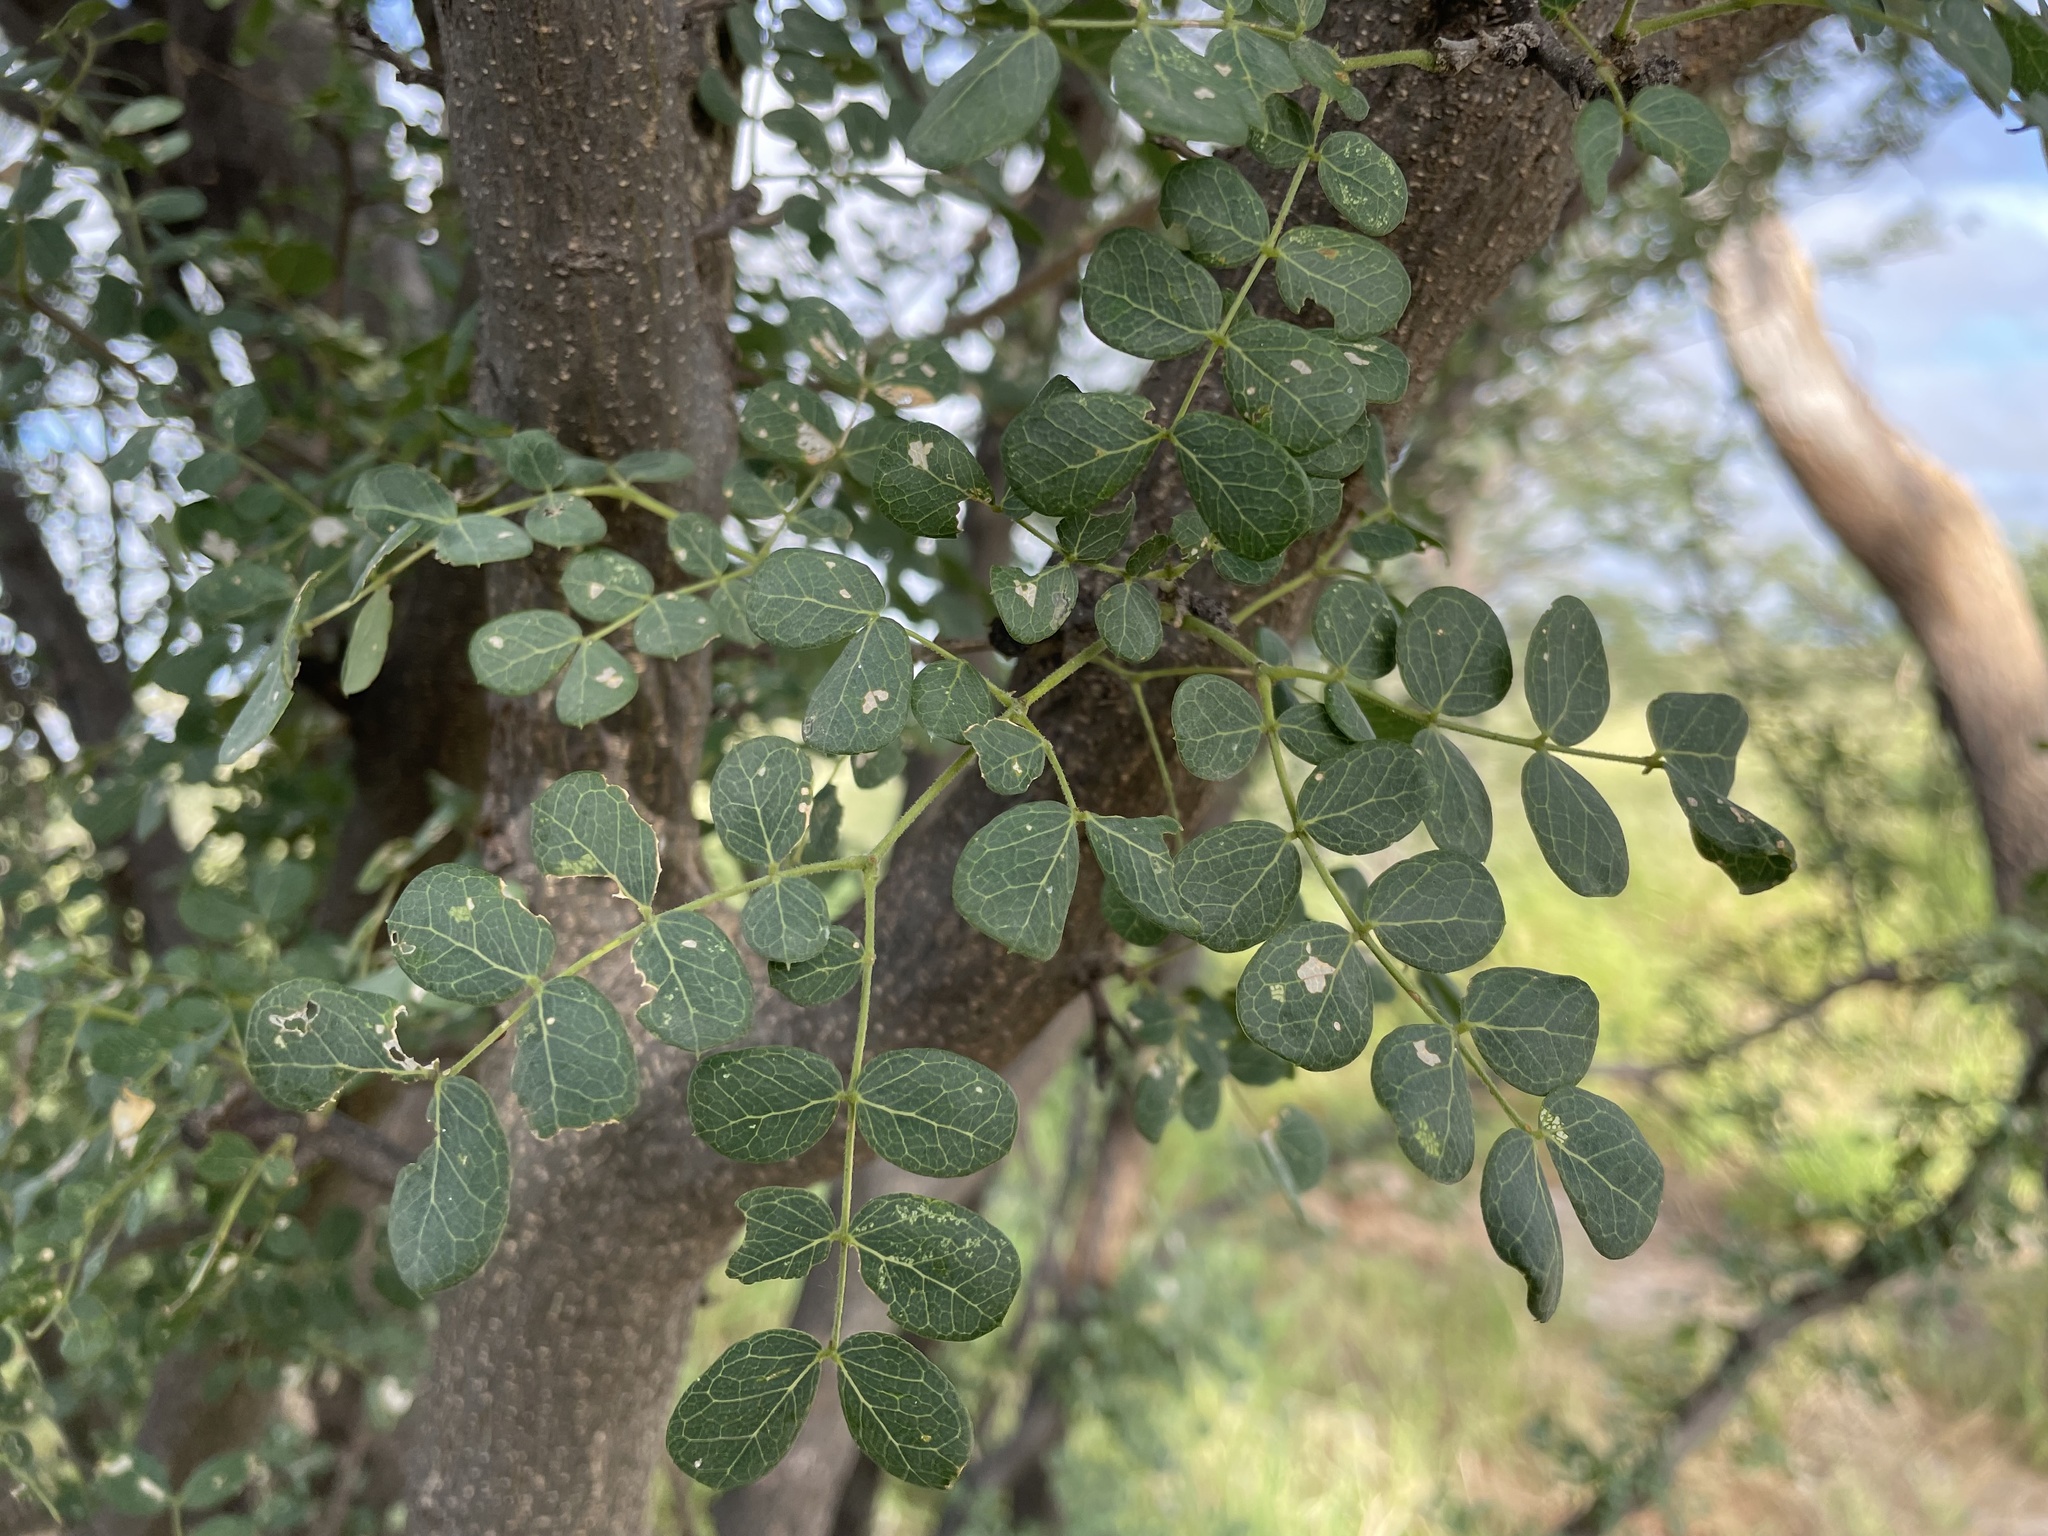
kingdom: Plantae
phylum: Tracheophyta
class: Magnoliopsida
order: Fabales
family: Fabaceae
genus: Albizia
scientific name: Albizia versicolor
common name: Poisonpod
